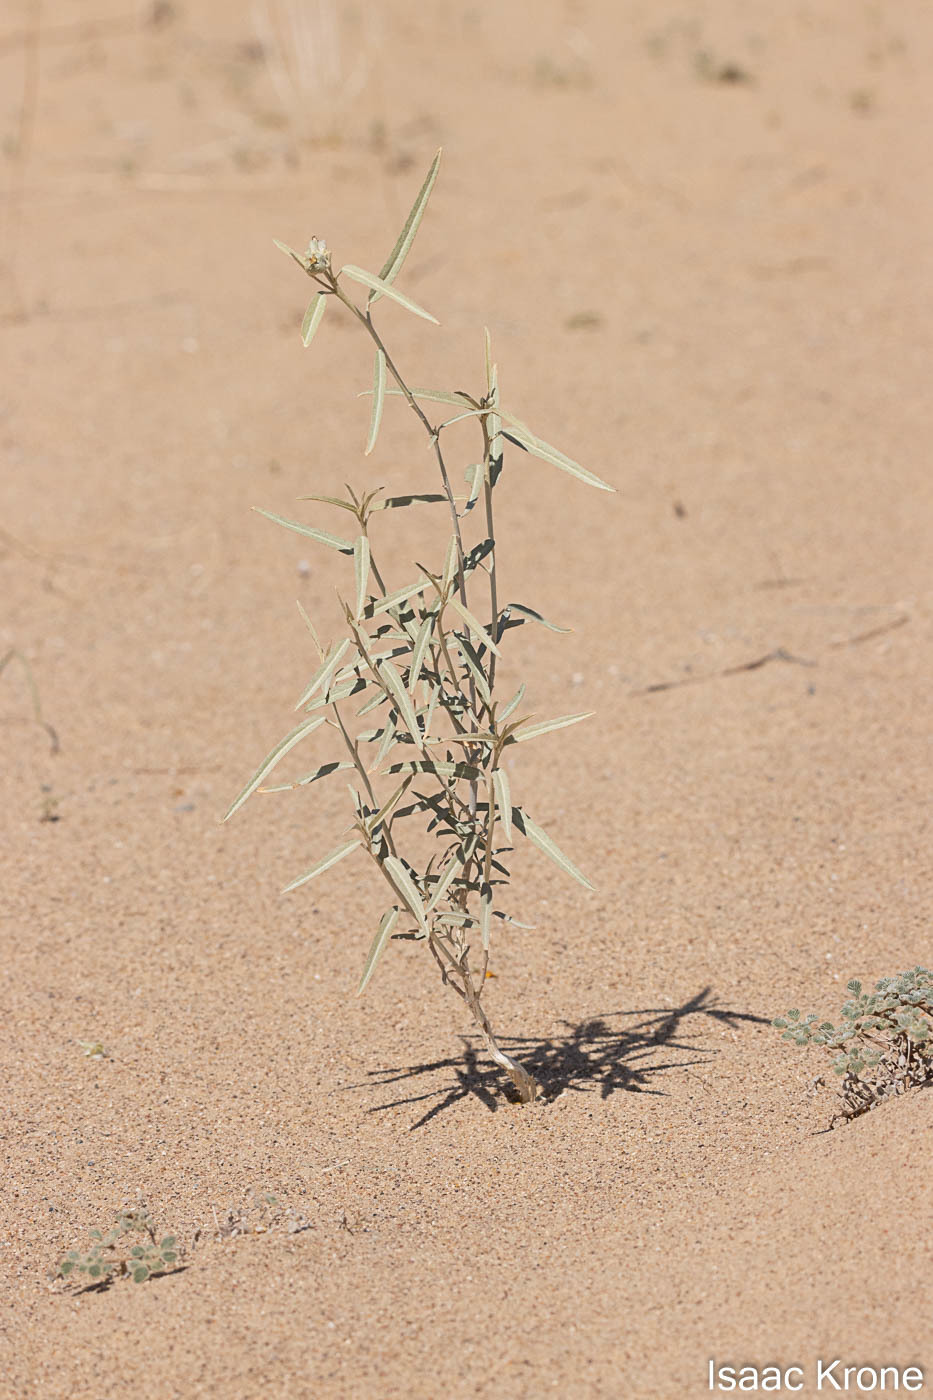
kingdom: Plantae
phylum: Tracheophyta
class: Magnoliopsida
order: Malpighiales
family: Euphorbiaceae
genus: Croton
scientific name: Croton wigginsii
